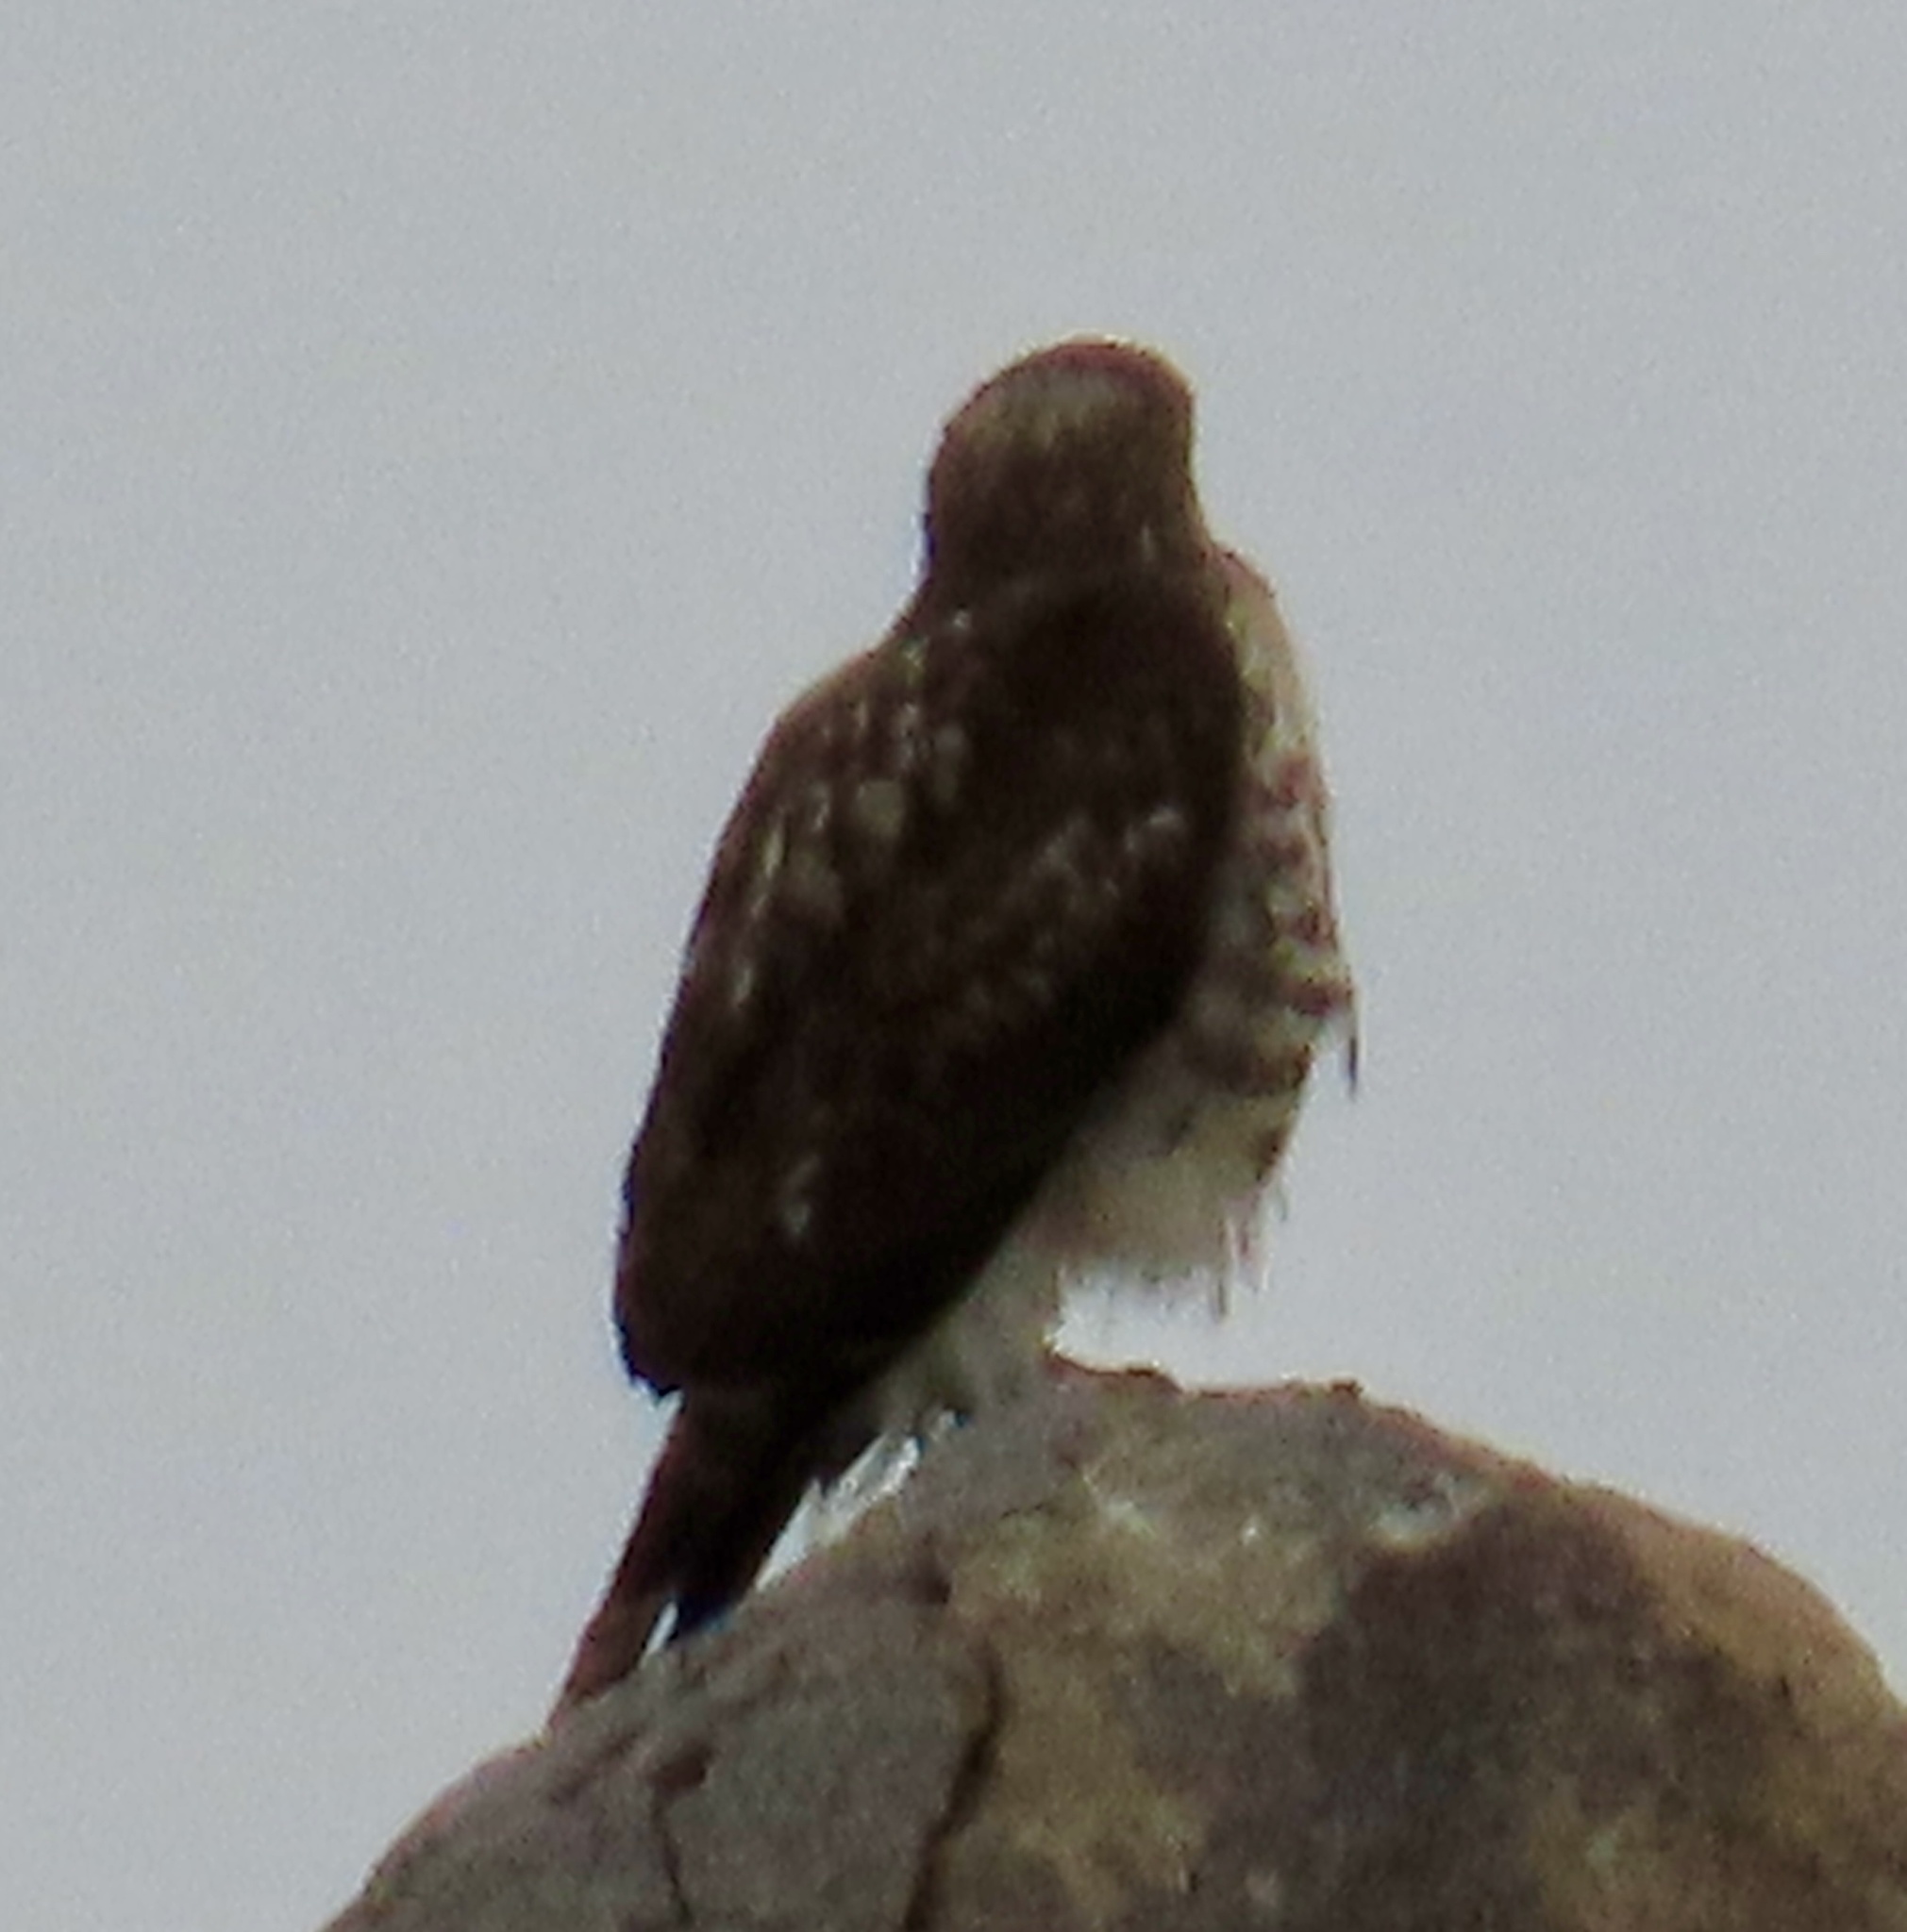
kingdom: Animalia
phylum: Chordata
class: Aves
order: Accipitriformes
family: Accipitridae
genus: Buteo
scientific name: Buteo jamaicensis
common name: Red-tailed hawk
